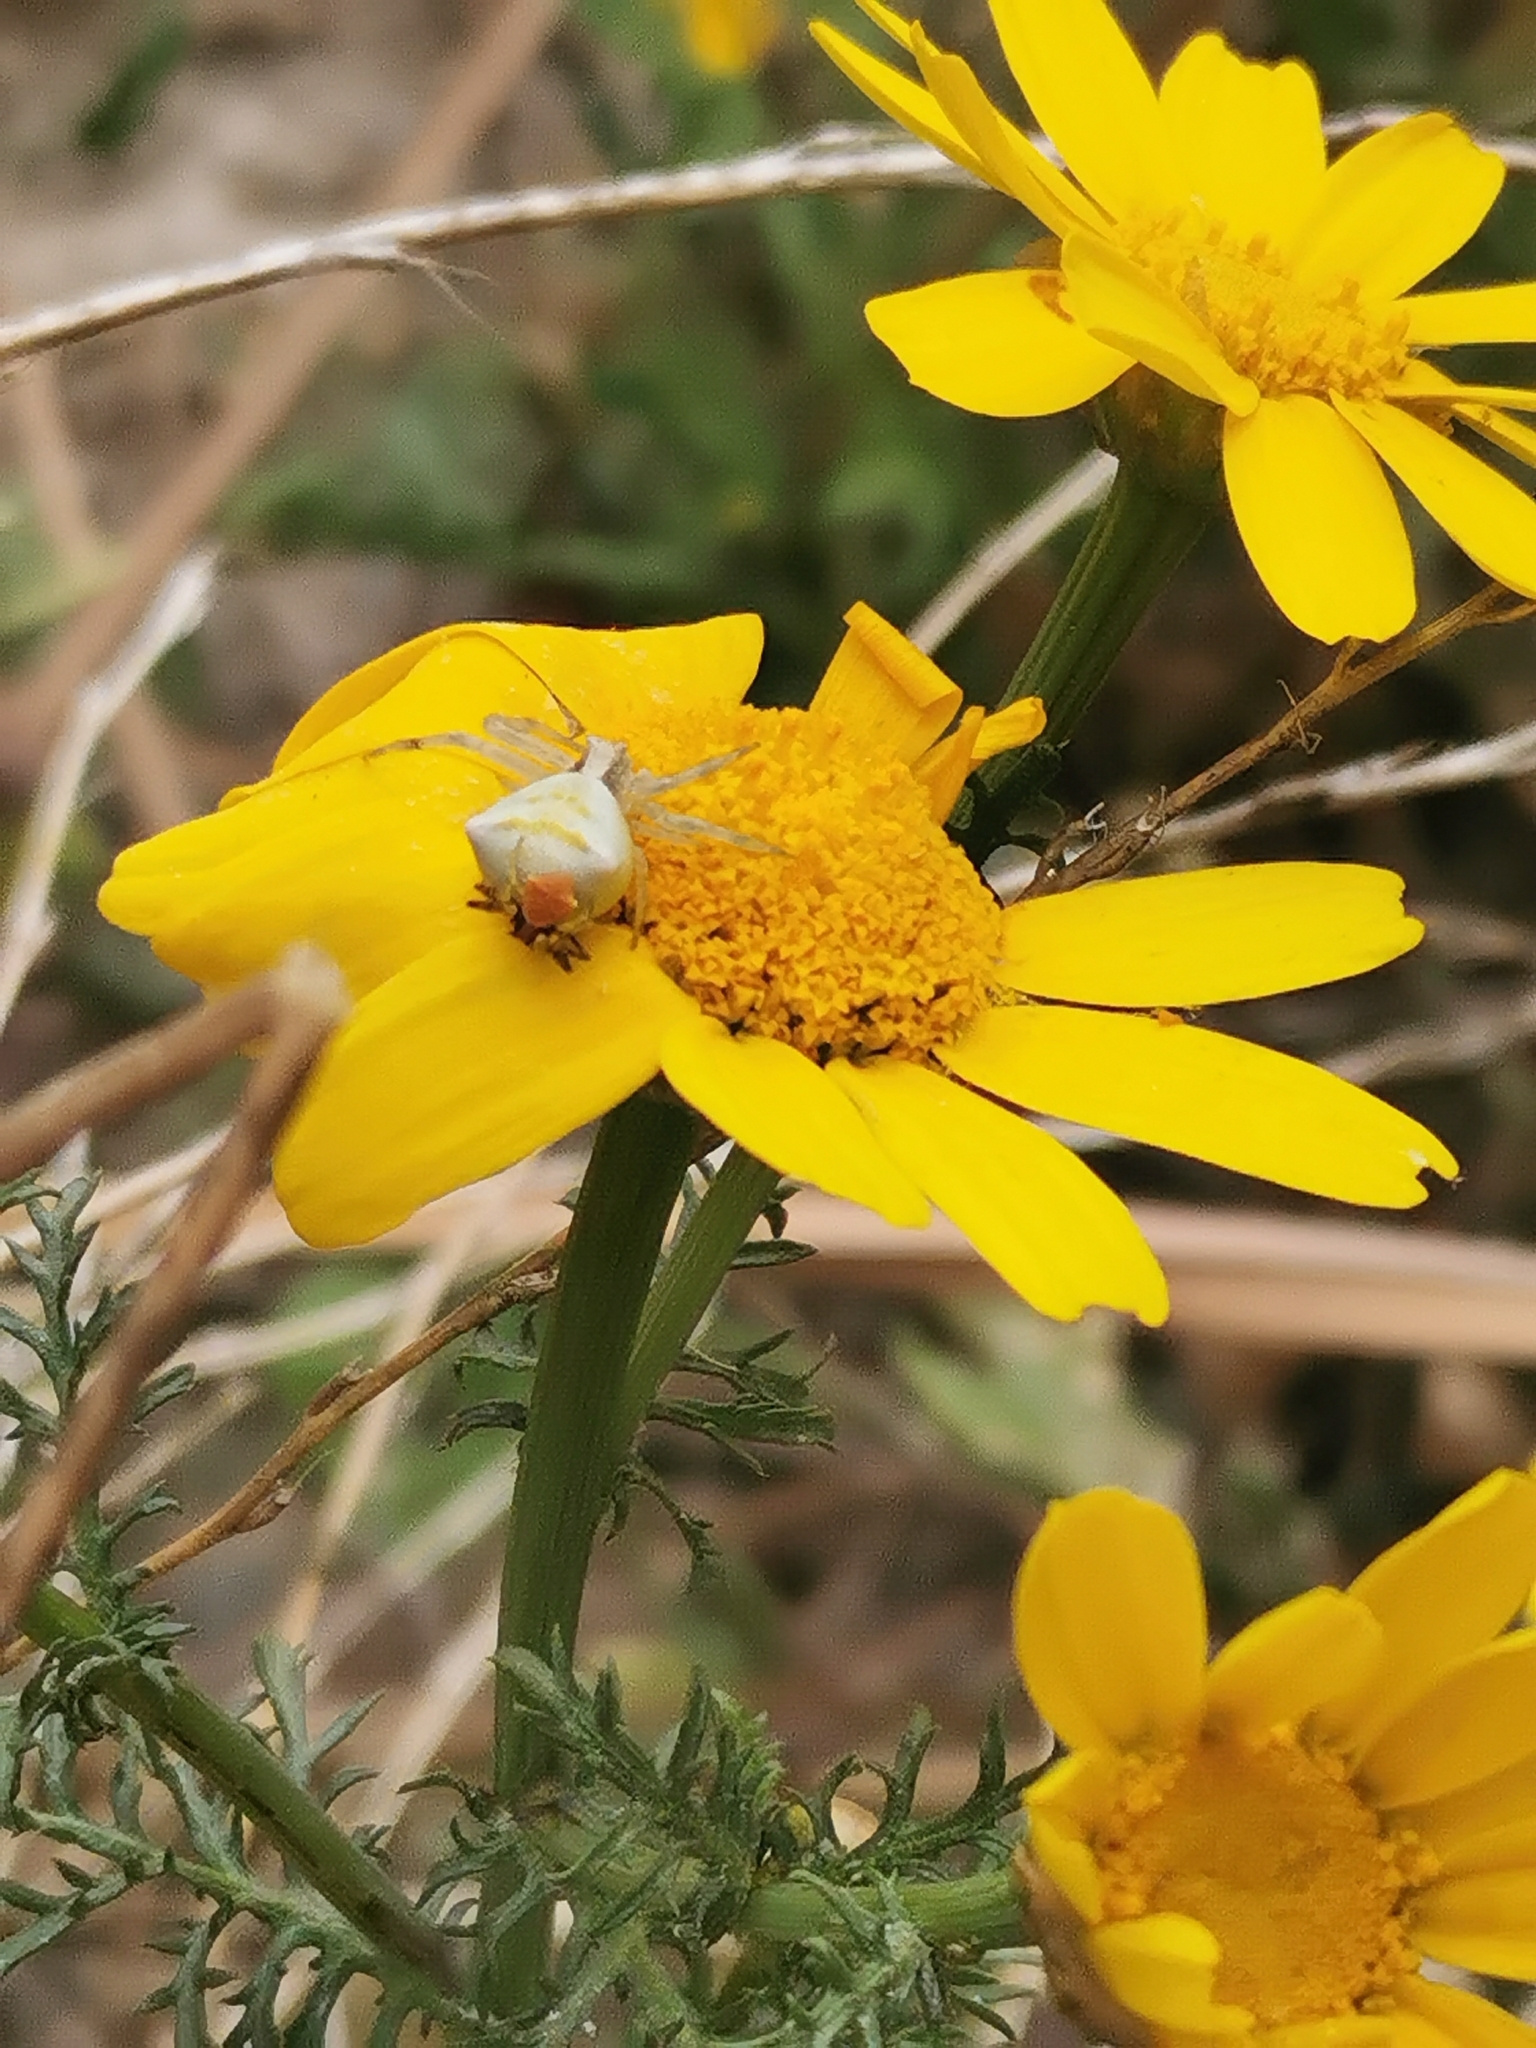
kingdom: Animalia
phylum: Arthropoda
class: Arachnida
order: Araneae
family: Thomisidae
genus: Thomisus
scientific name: Thomisus onustus
